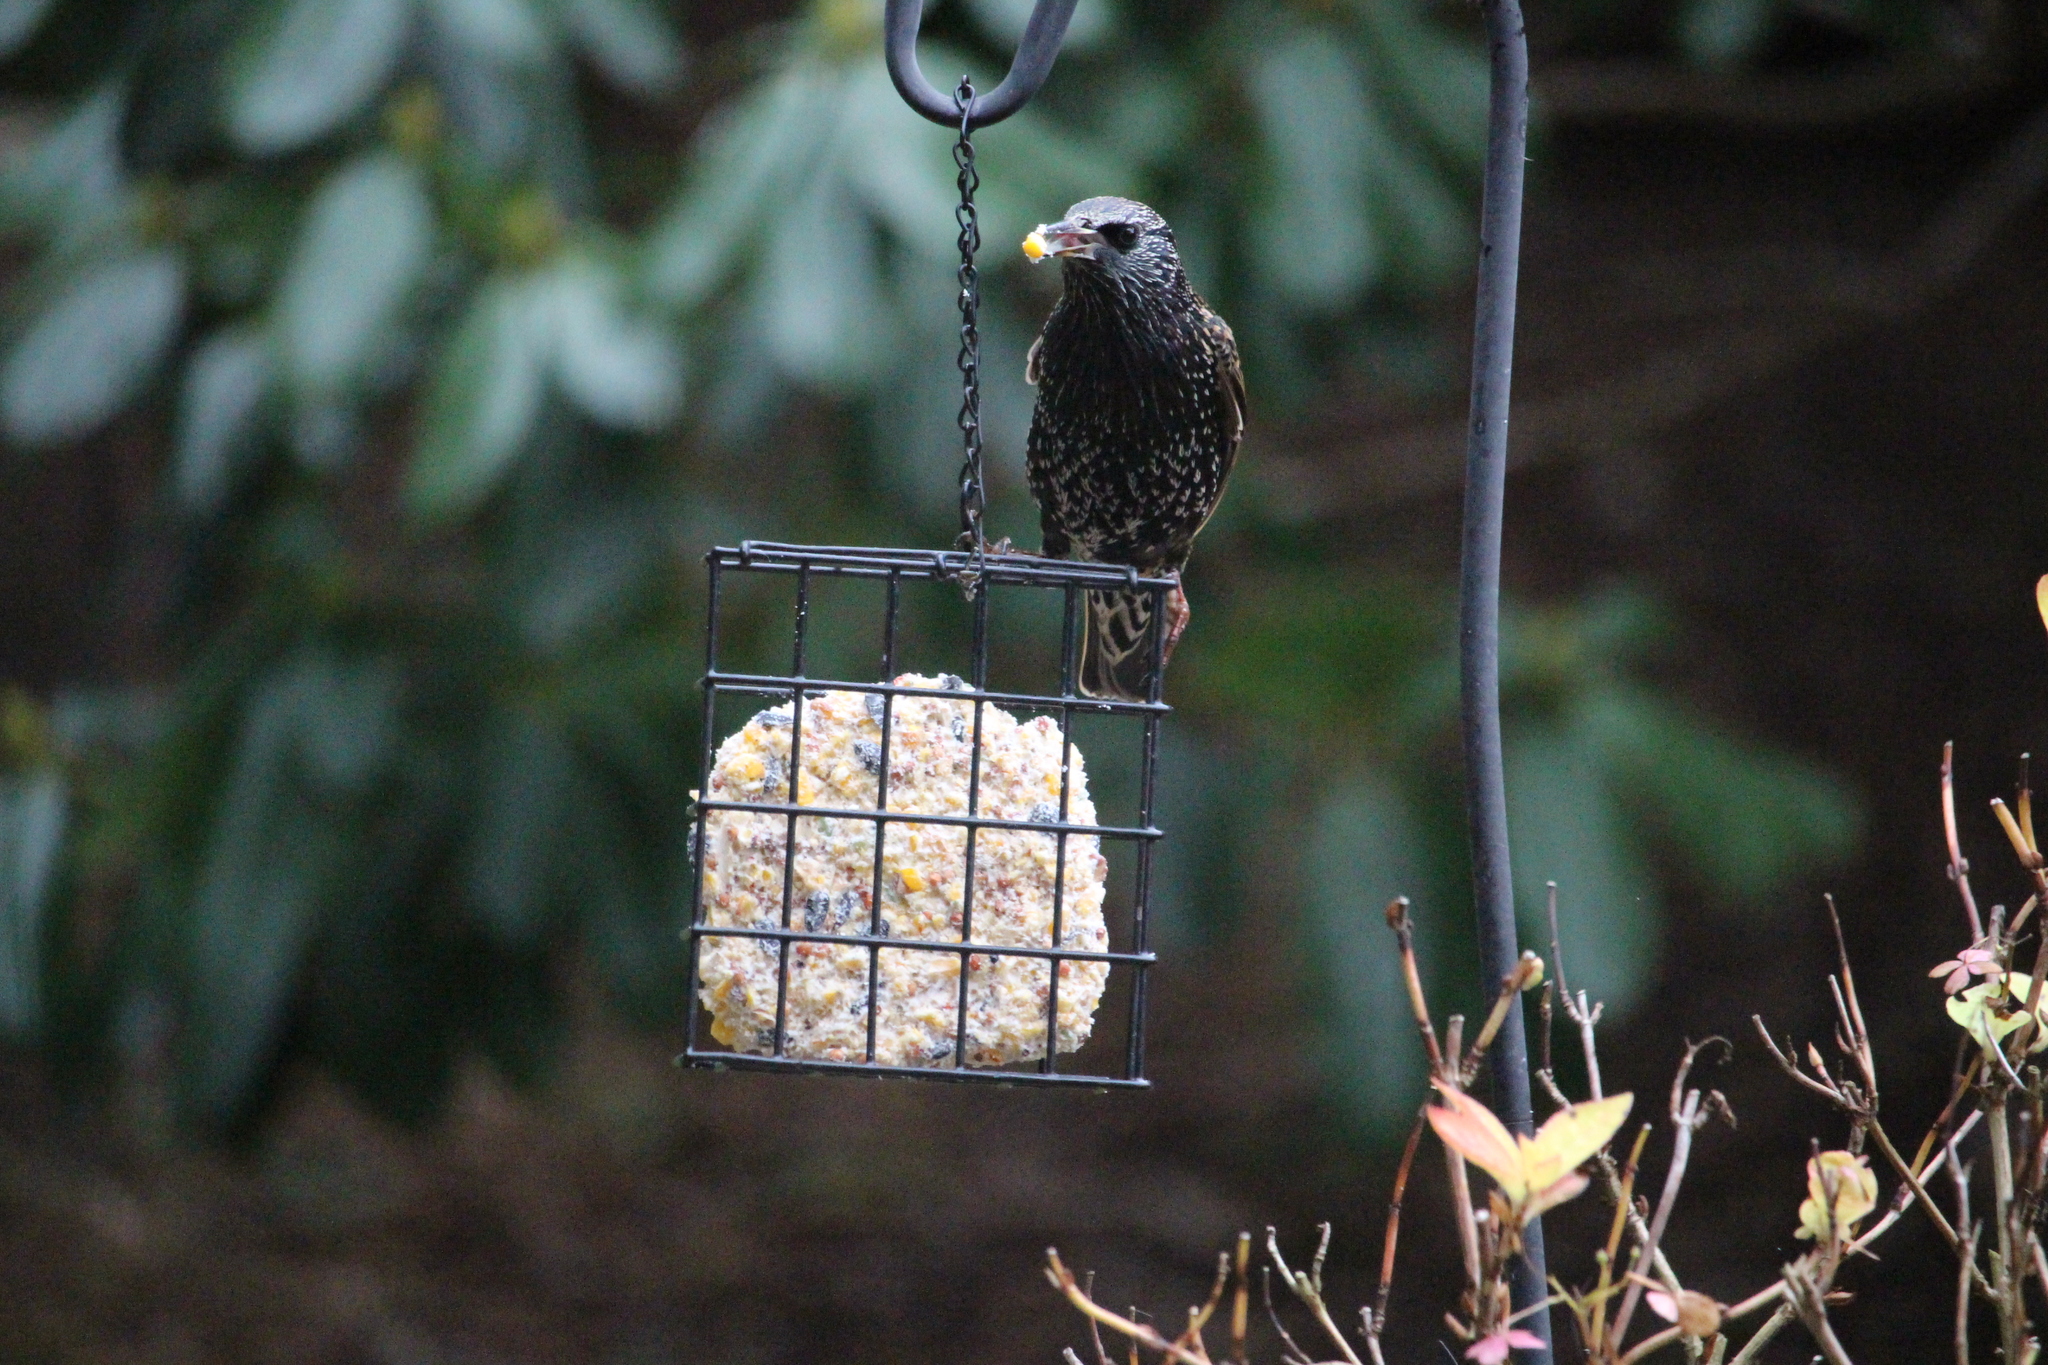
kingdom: Animalia
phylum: Chordata
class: Aves
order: Passeriformes
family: Sturnidae
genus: Sturnus
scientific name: Sturnus vulgaris
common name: Common starling
